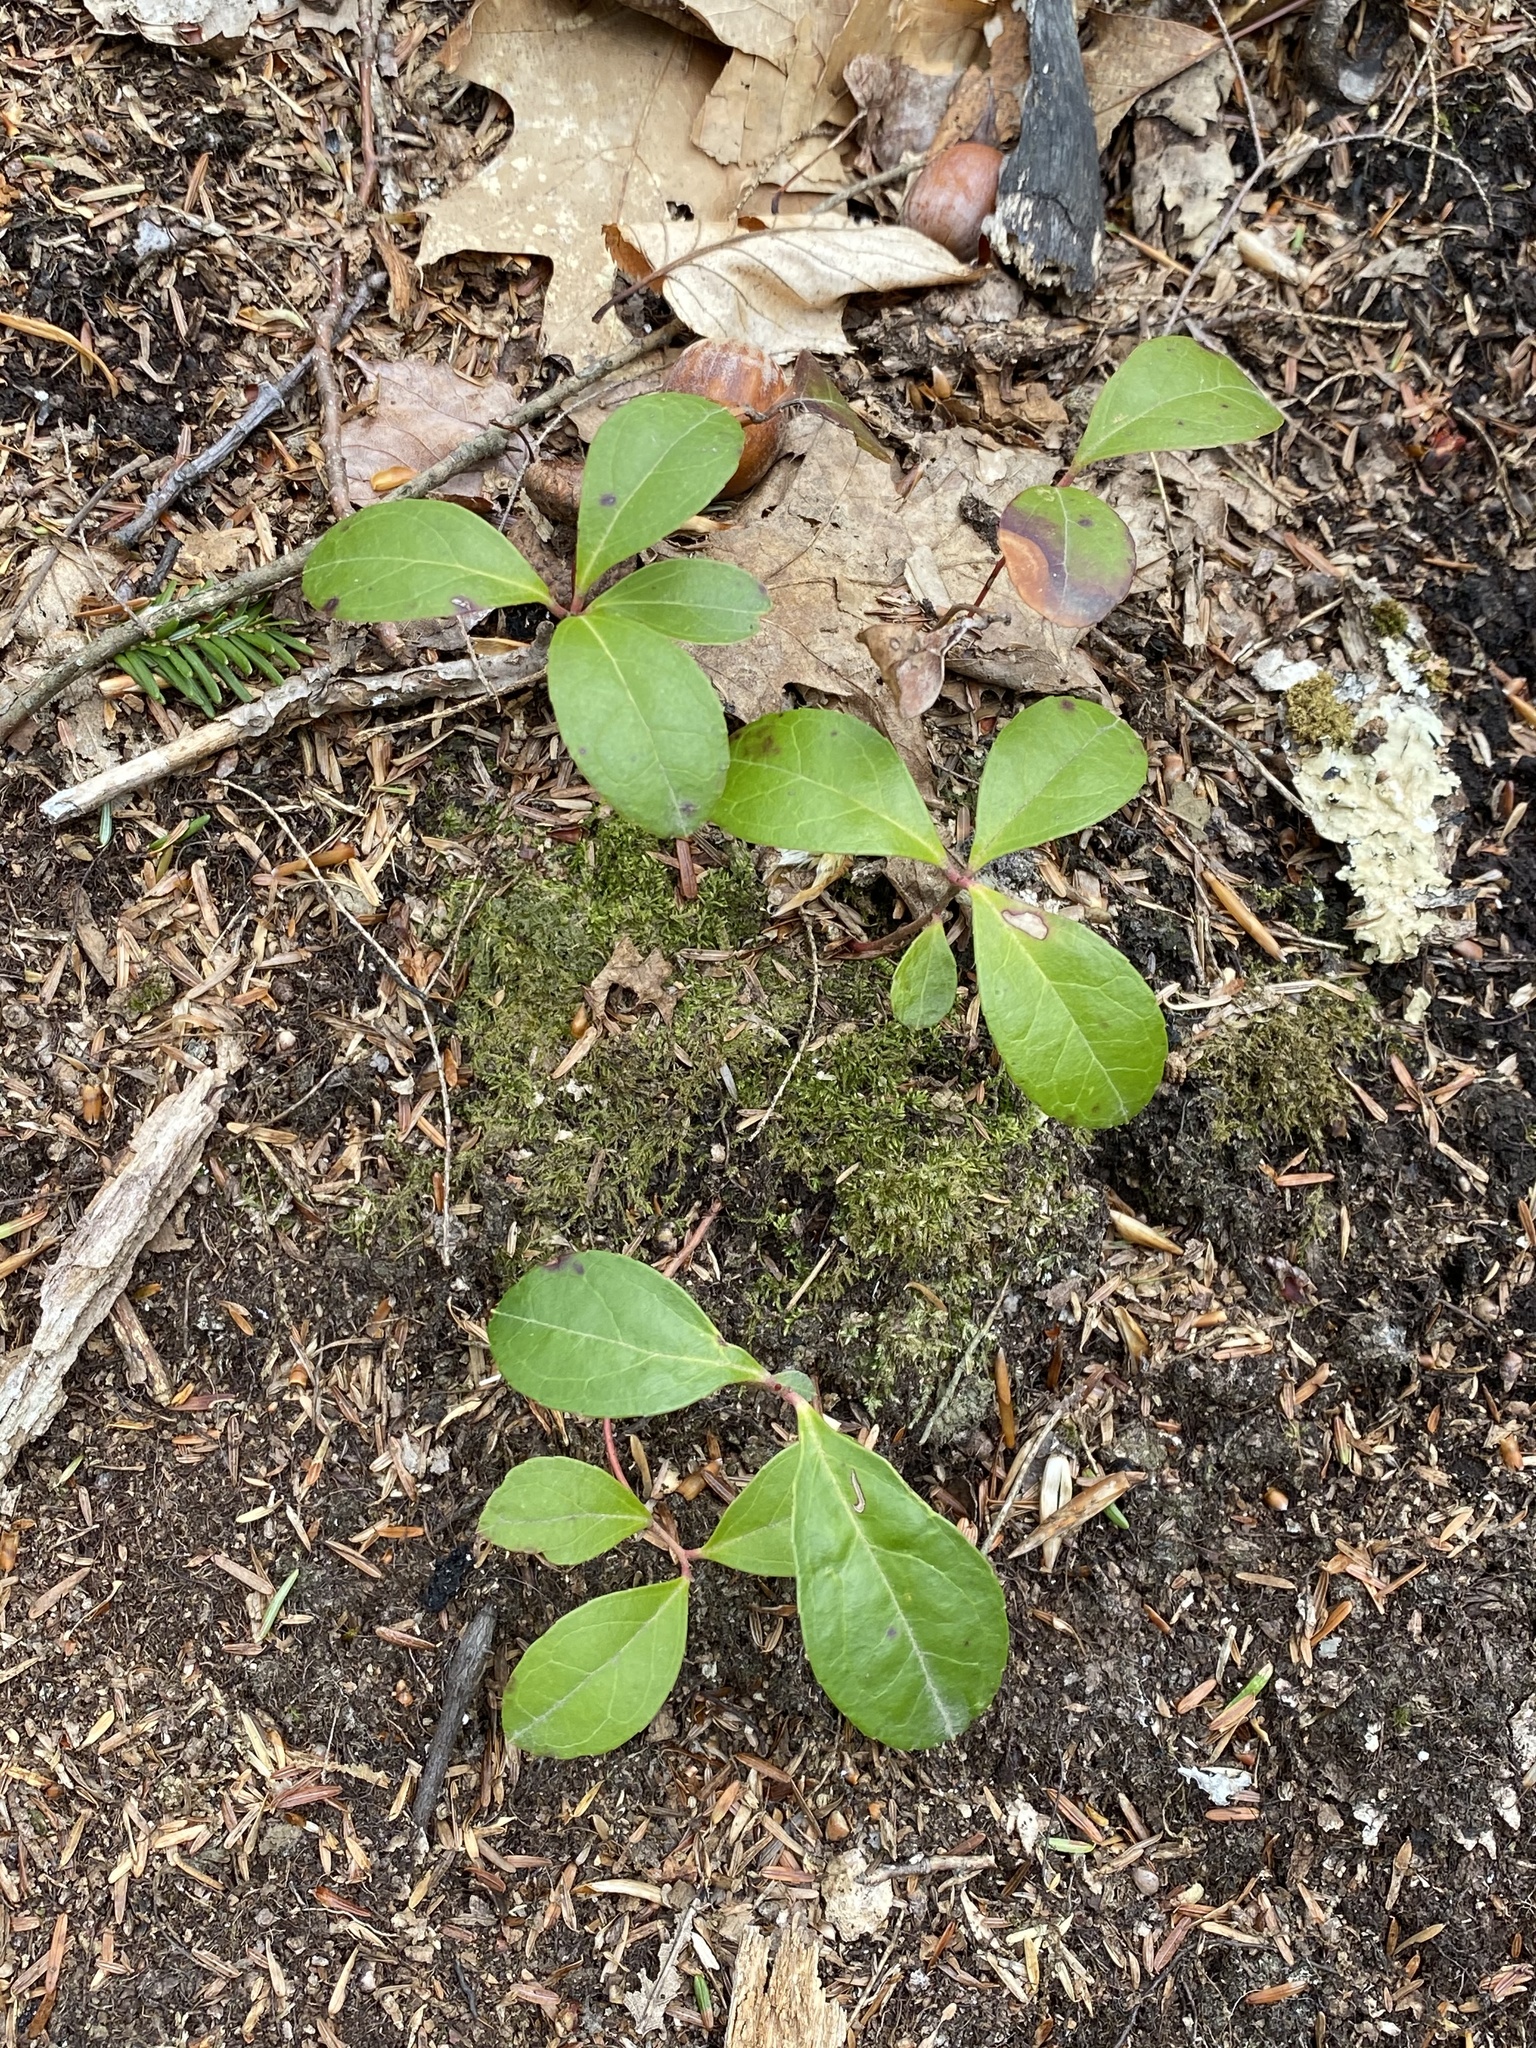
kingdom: Plantae
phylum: Tracheophyta
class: Magnoliopsida
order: Ericales
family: Ericaceae
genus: Gaultheria
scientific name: Gaultheria procumbens
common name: Checkerberry
